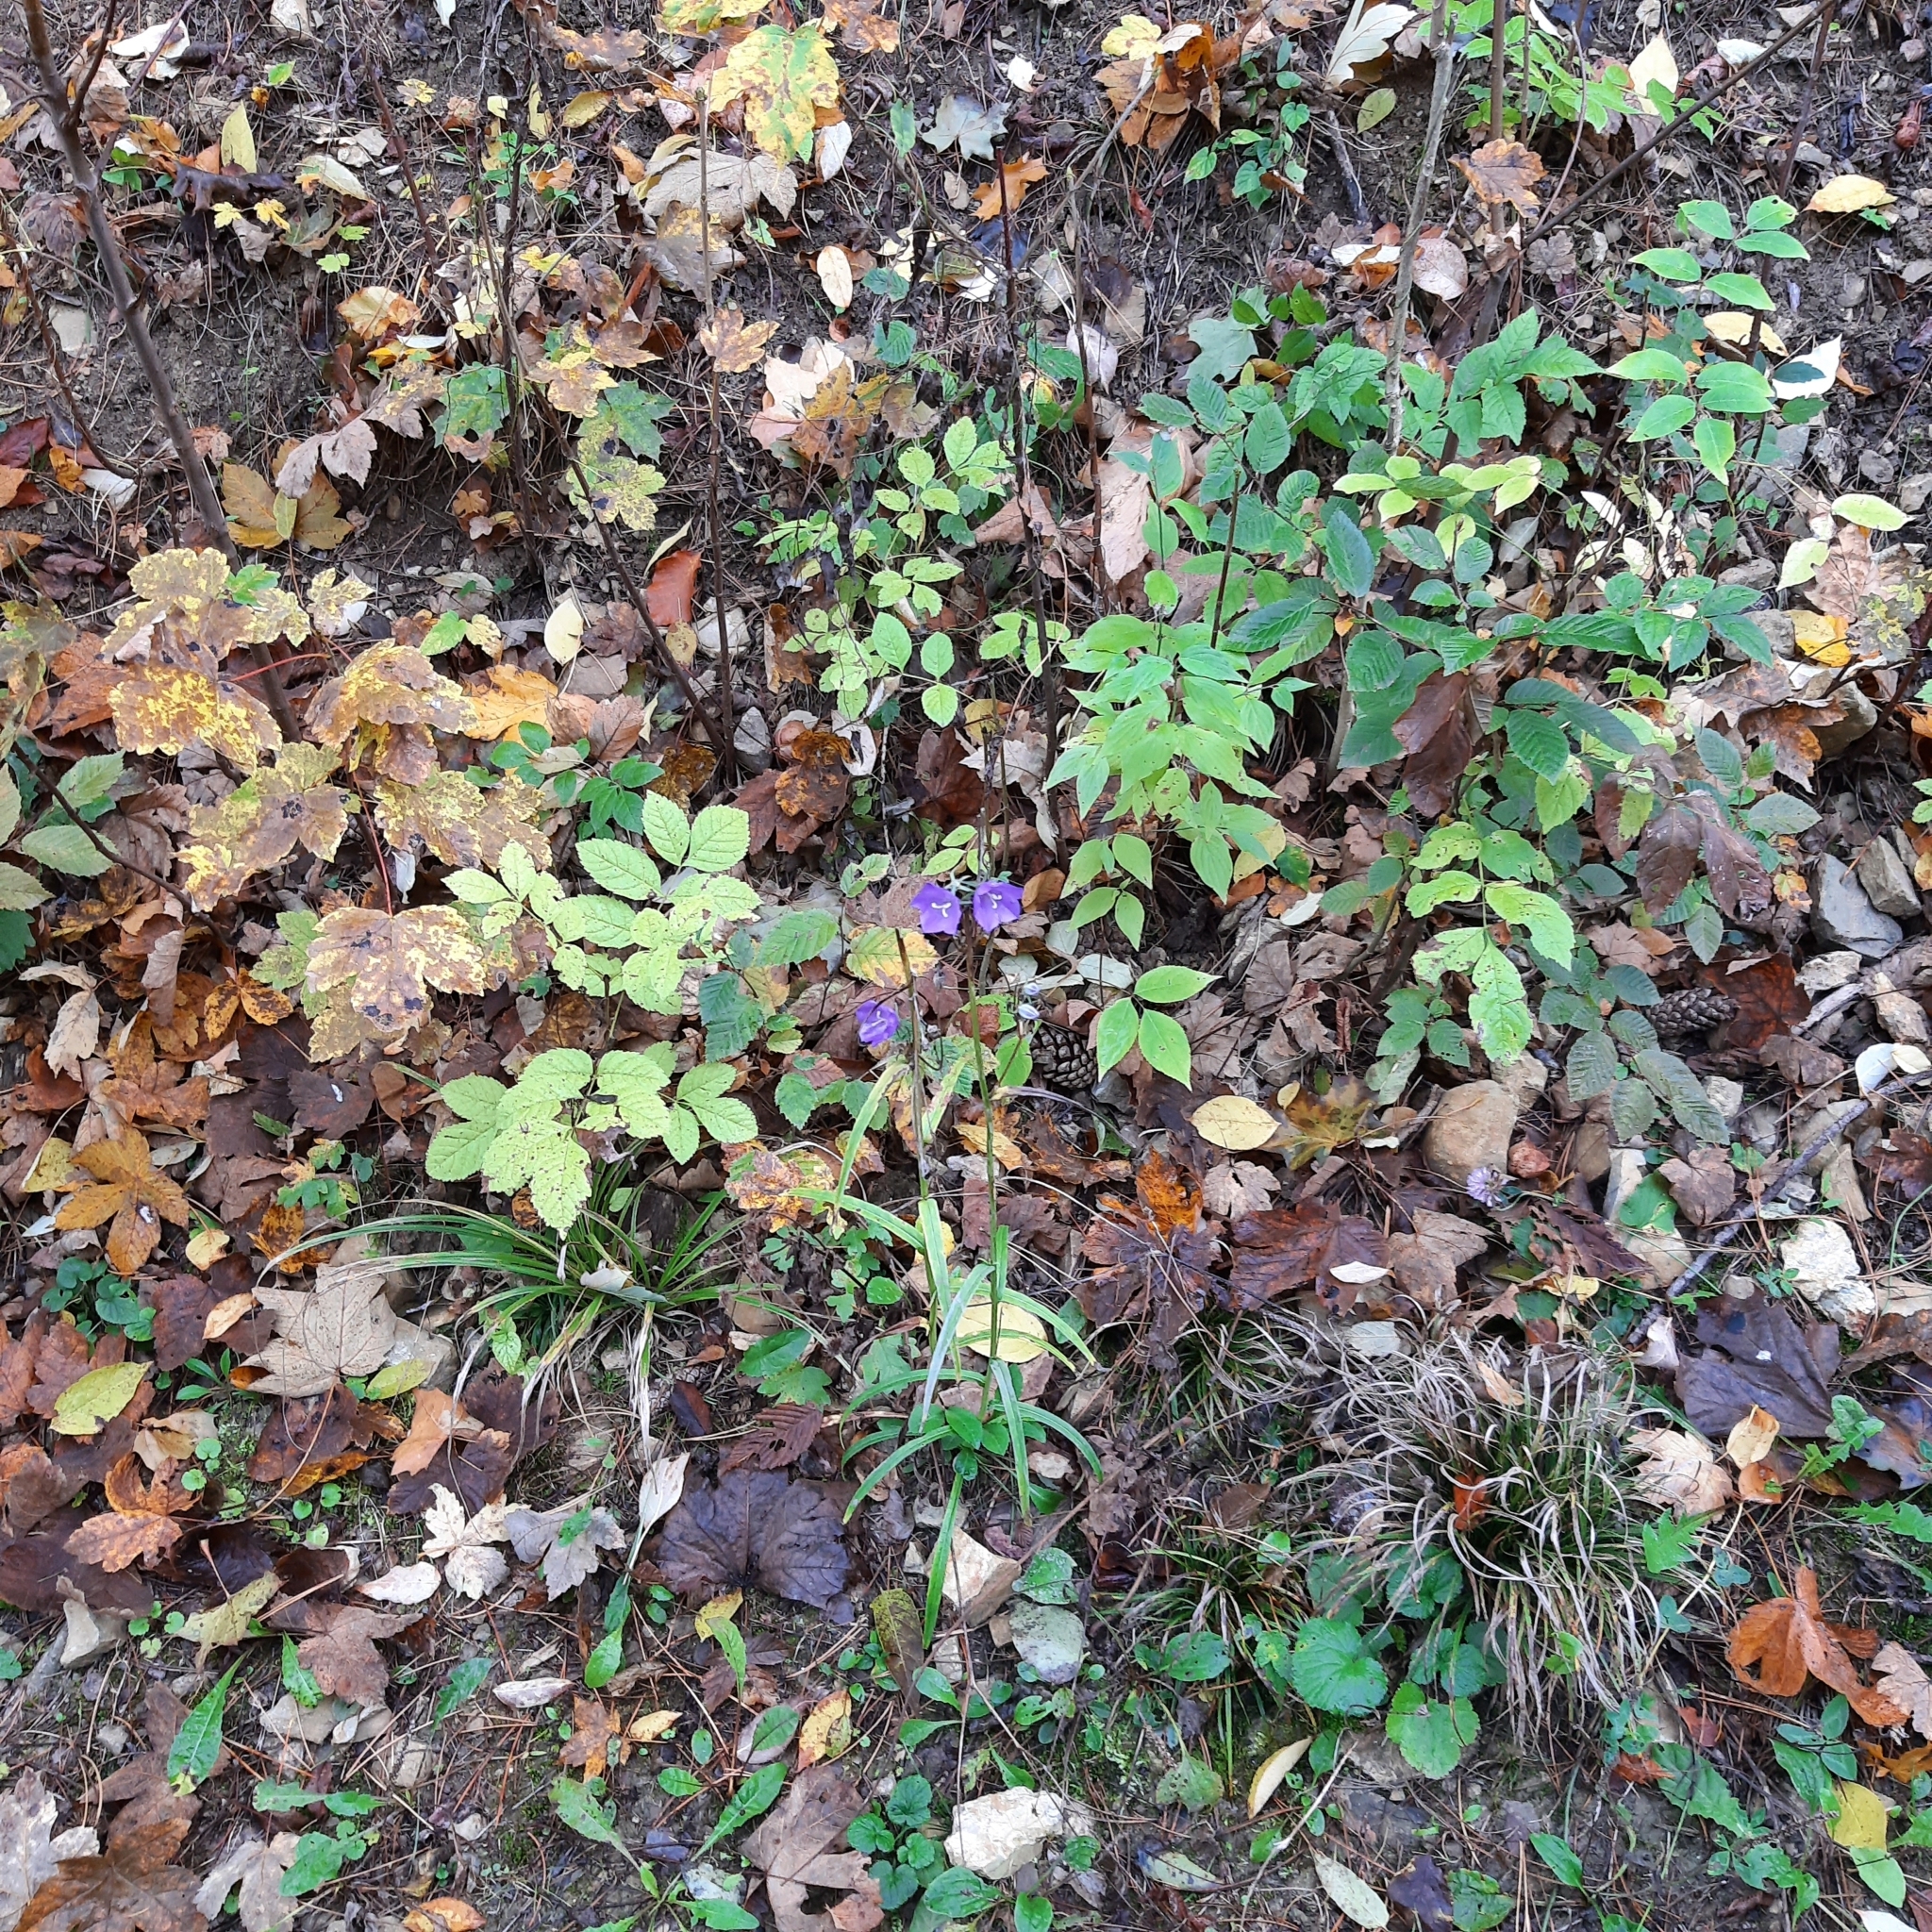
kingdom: Plantae
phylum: Tracheophyta
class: Magnoliopsida
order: Asterales
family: Campanulaceae
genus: Campanula
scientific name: Campanula persicifolia
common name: Peach-leaved bellflower
